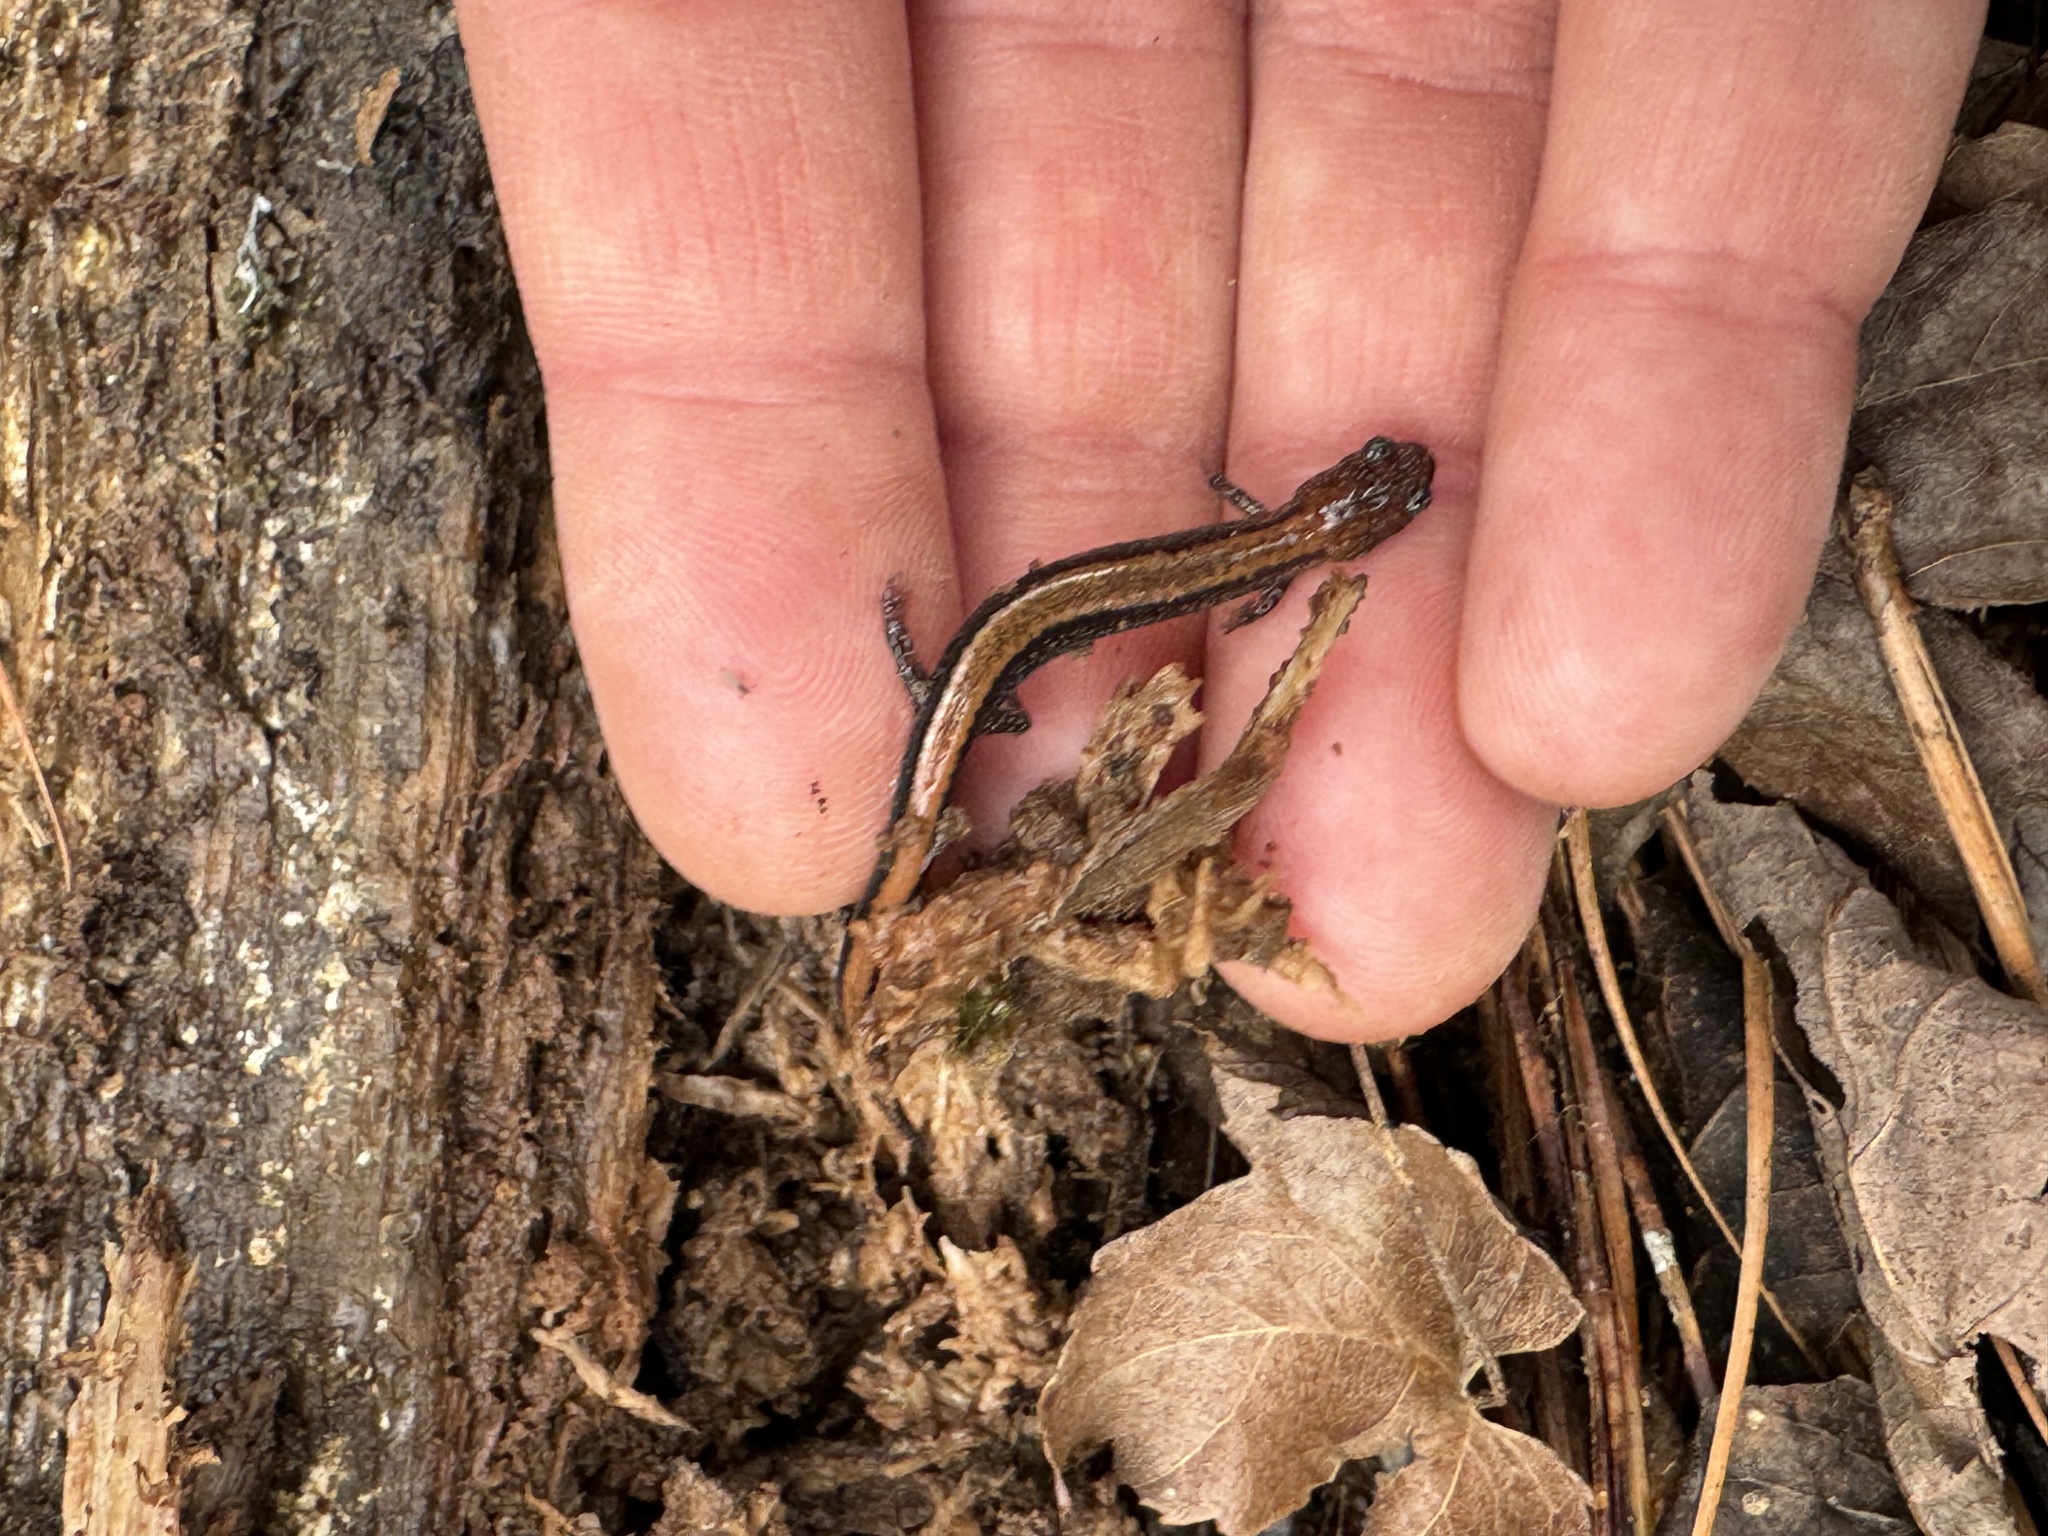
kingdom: Animalia
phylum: Chordata
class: Amphibia
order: Caudata
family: Plethodontidae
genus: Plethodon
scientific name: Plethodon cinereus
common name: Redback salamander
